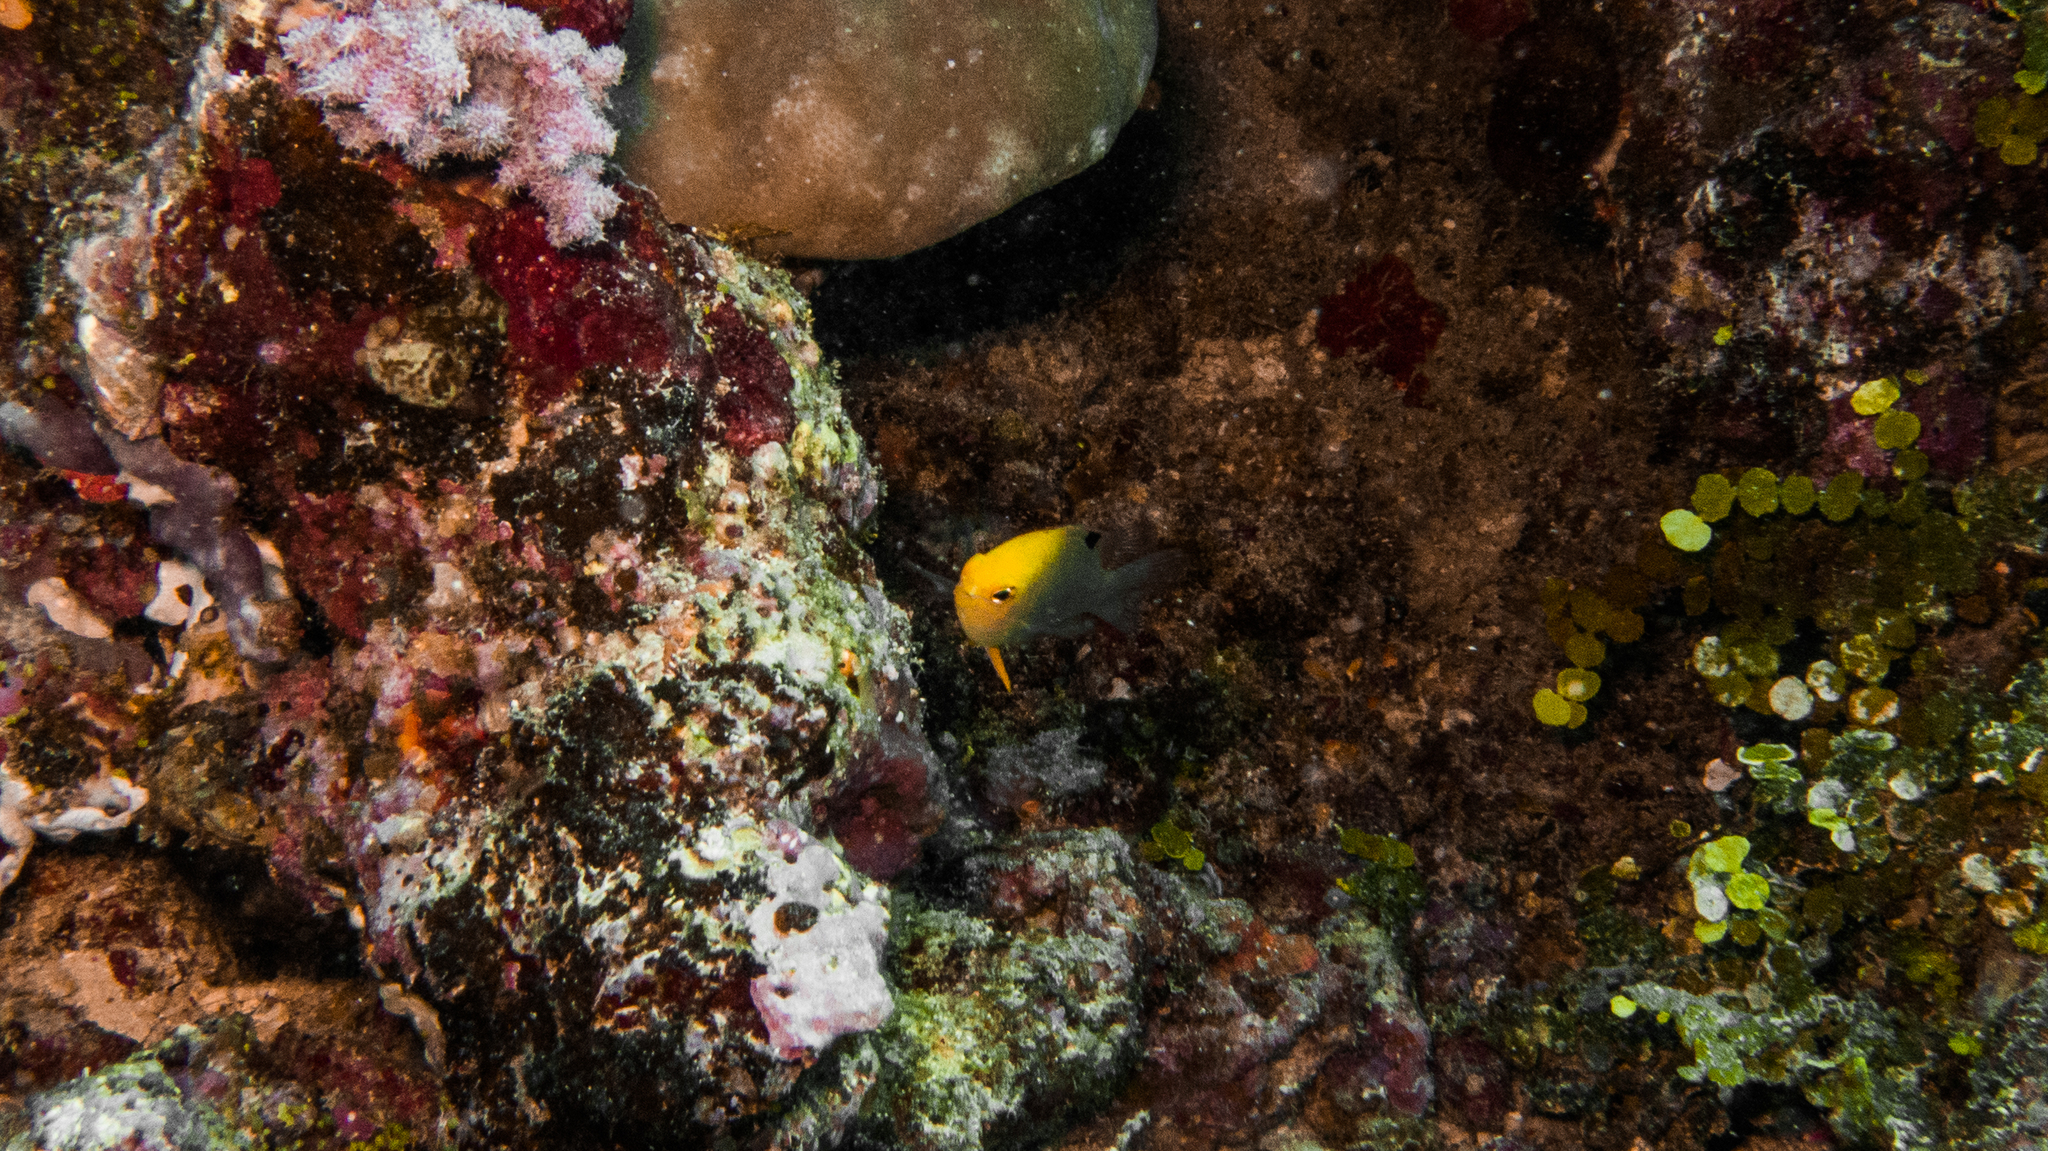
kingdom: Animalia
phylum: Chordata
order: Perciformes
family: Pomacentridae
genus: Chrysiptera
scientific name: Chrysiptera talboti
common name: Talbot's demoiselle
